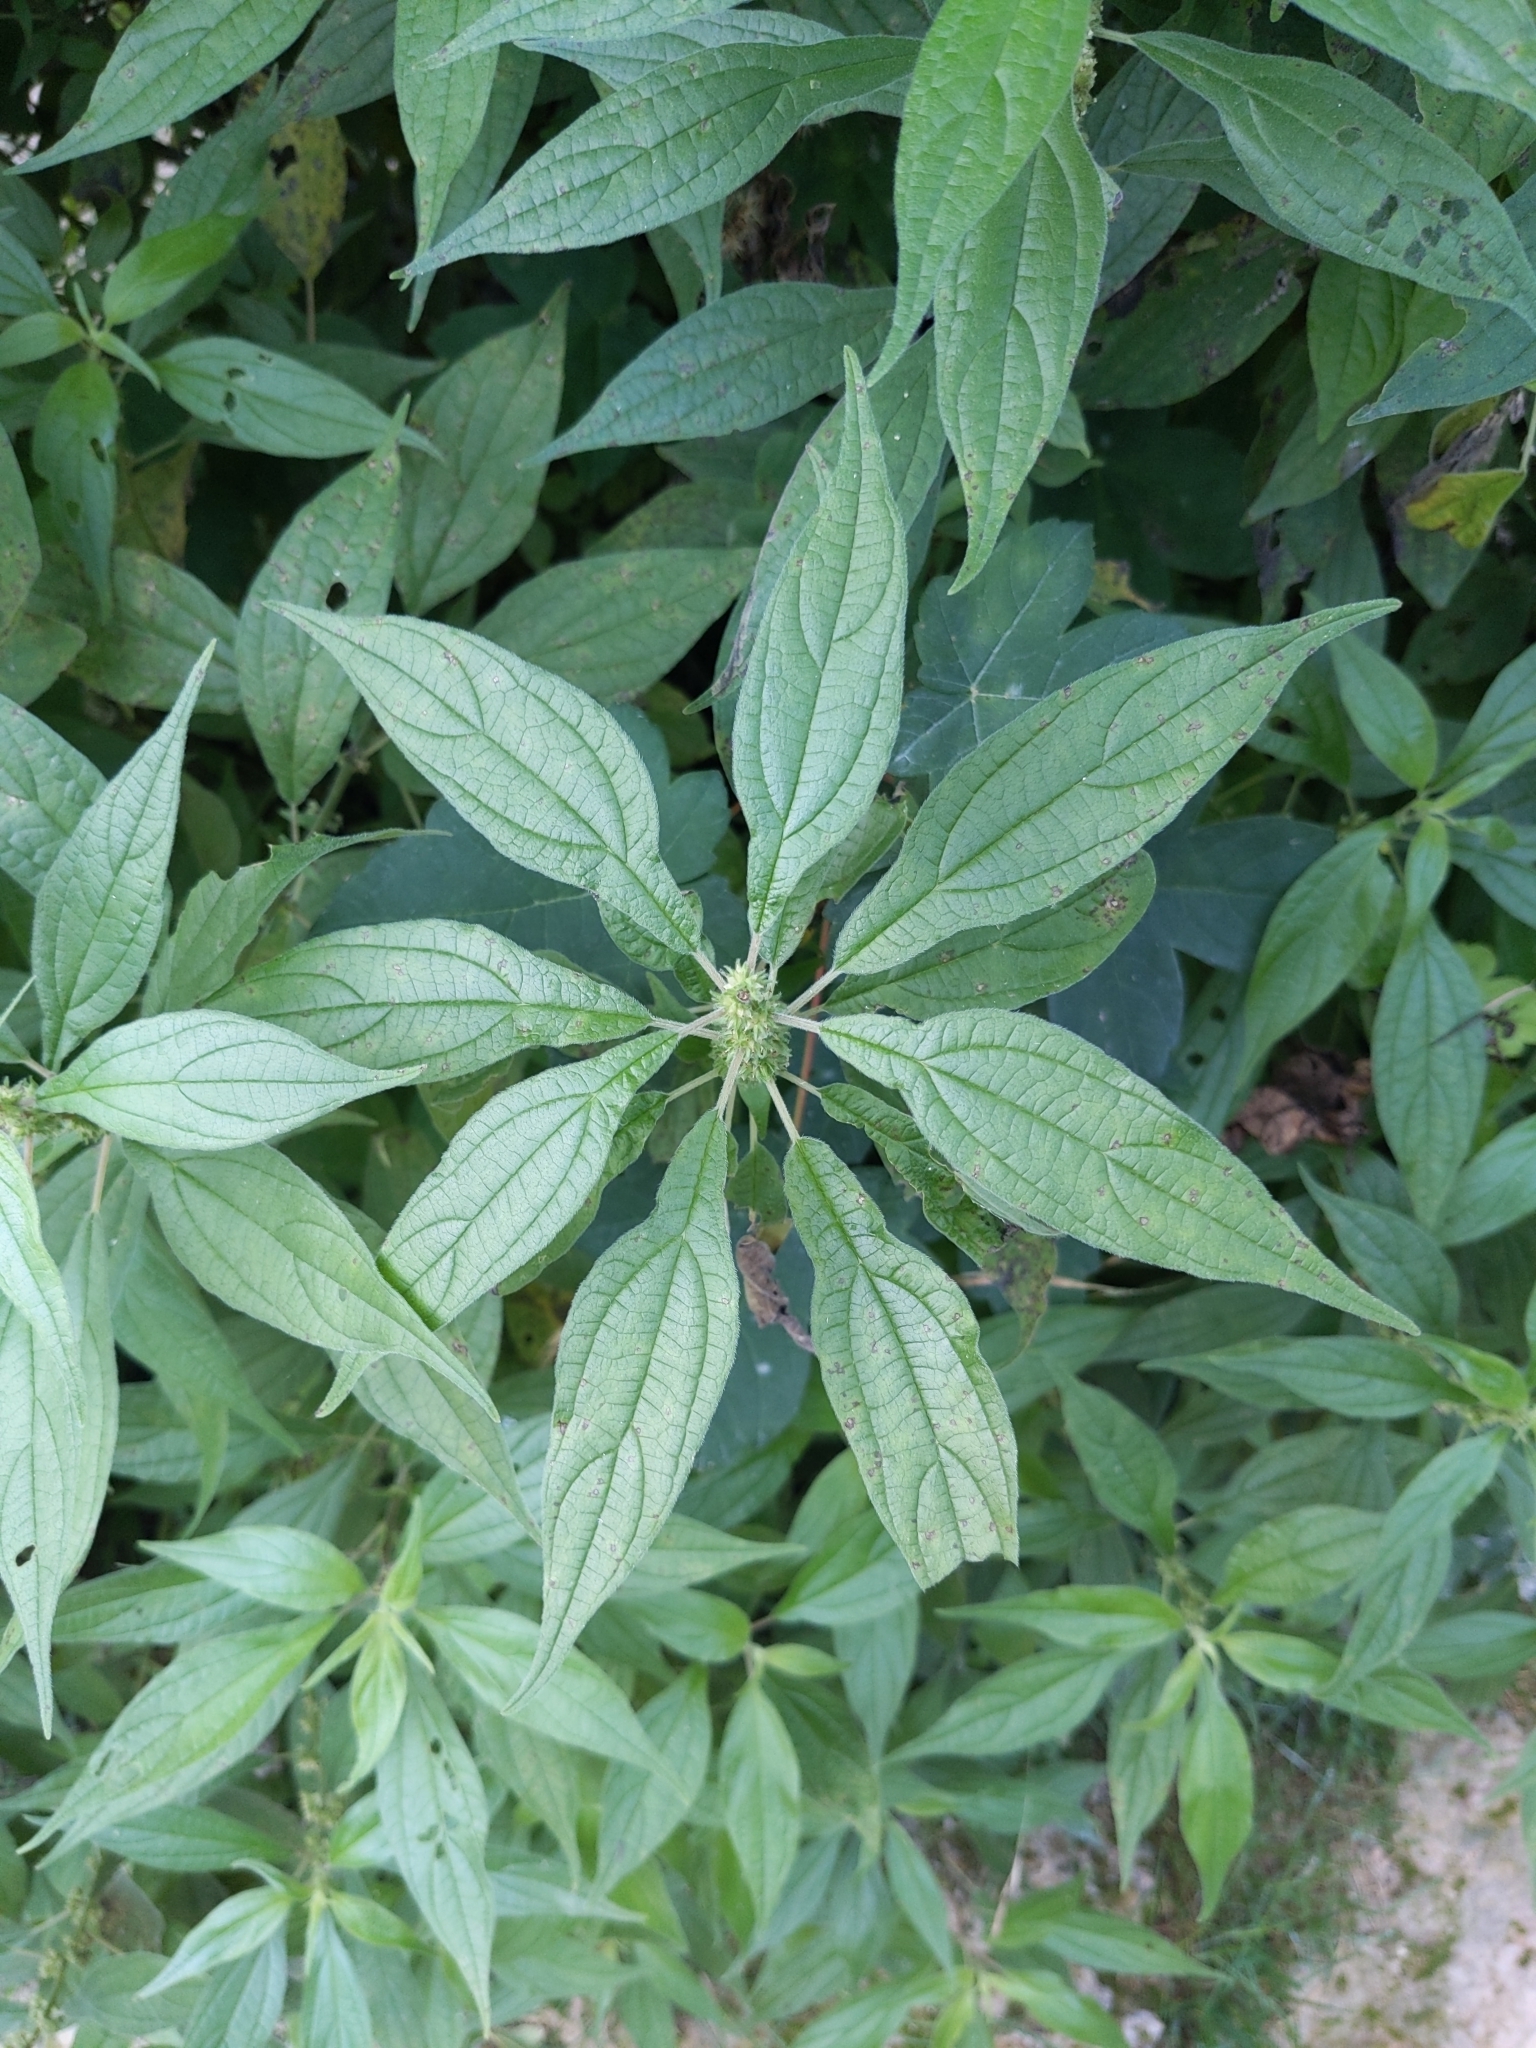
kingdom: Plantae
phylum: Tracheophyta
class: Magnoliopsida
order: Rosales
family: Urticaceae
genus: Parietaria
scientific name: Parietaria officinalis
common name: Eastern pellitory-of-the-wall
